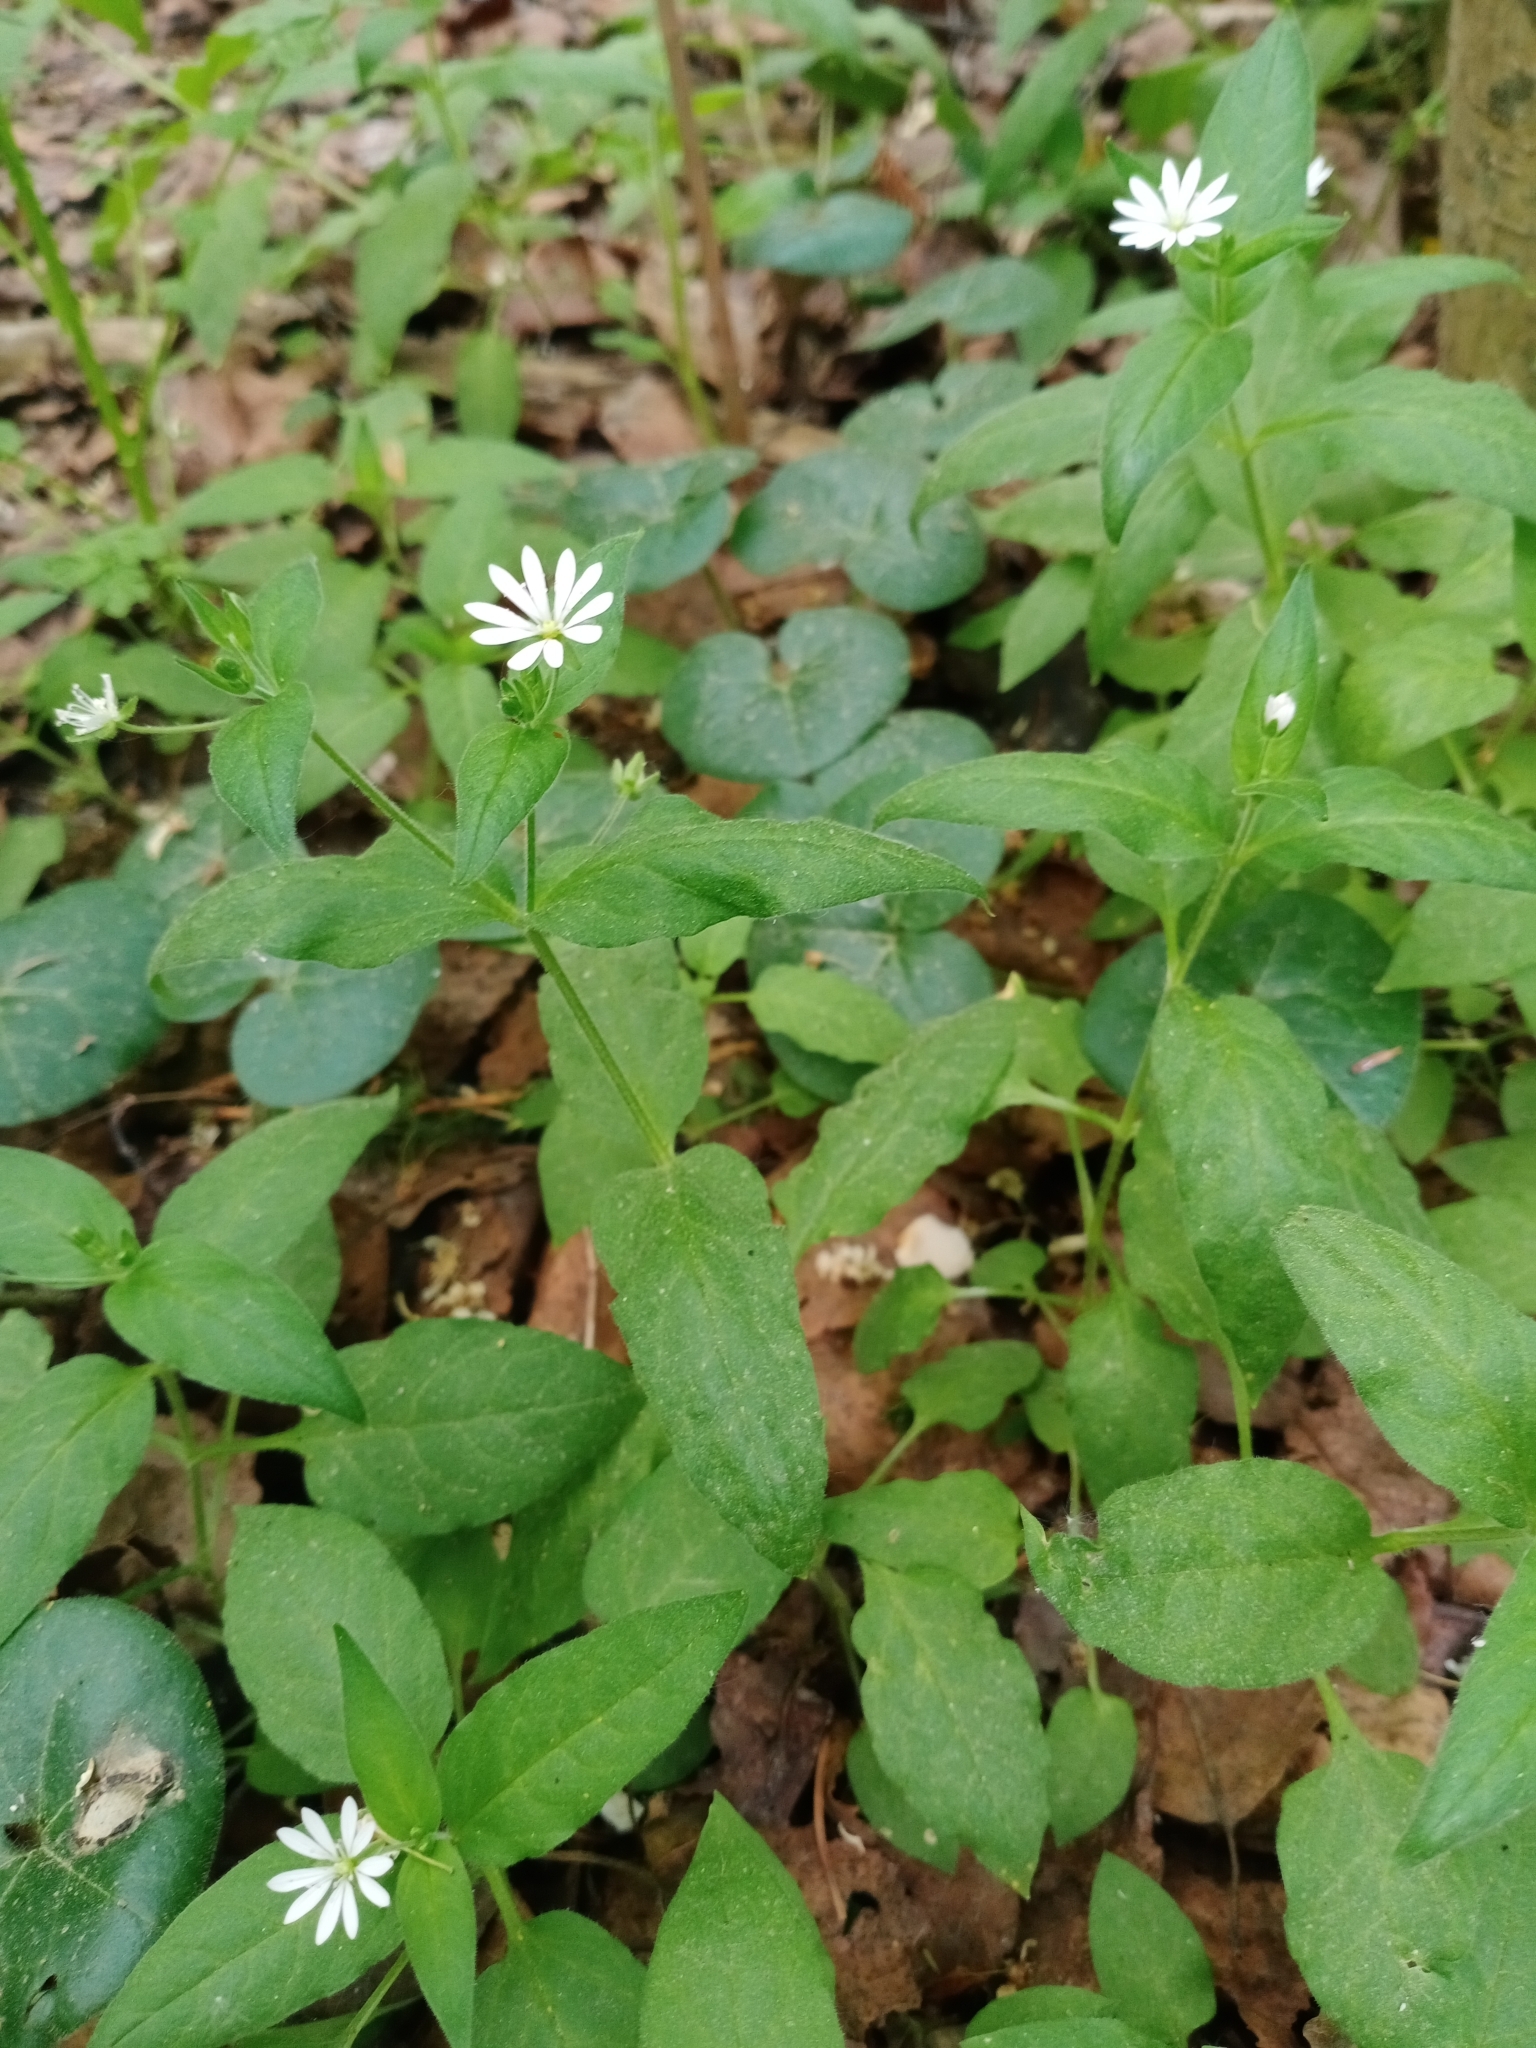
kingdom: Plantae
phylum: Tracheophyta
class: Magnoliopsida
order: Caryophyllales
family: Caryophyllaceae
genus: Stellaria
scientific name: Stellaria bungeana
